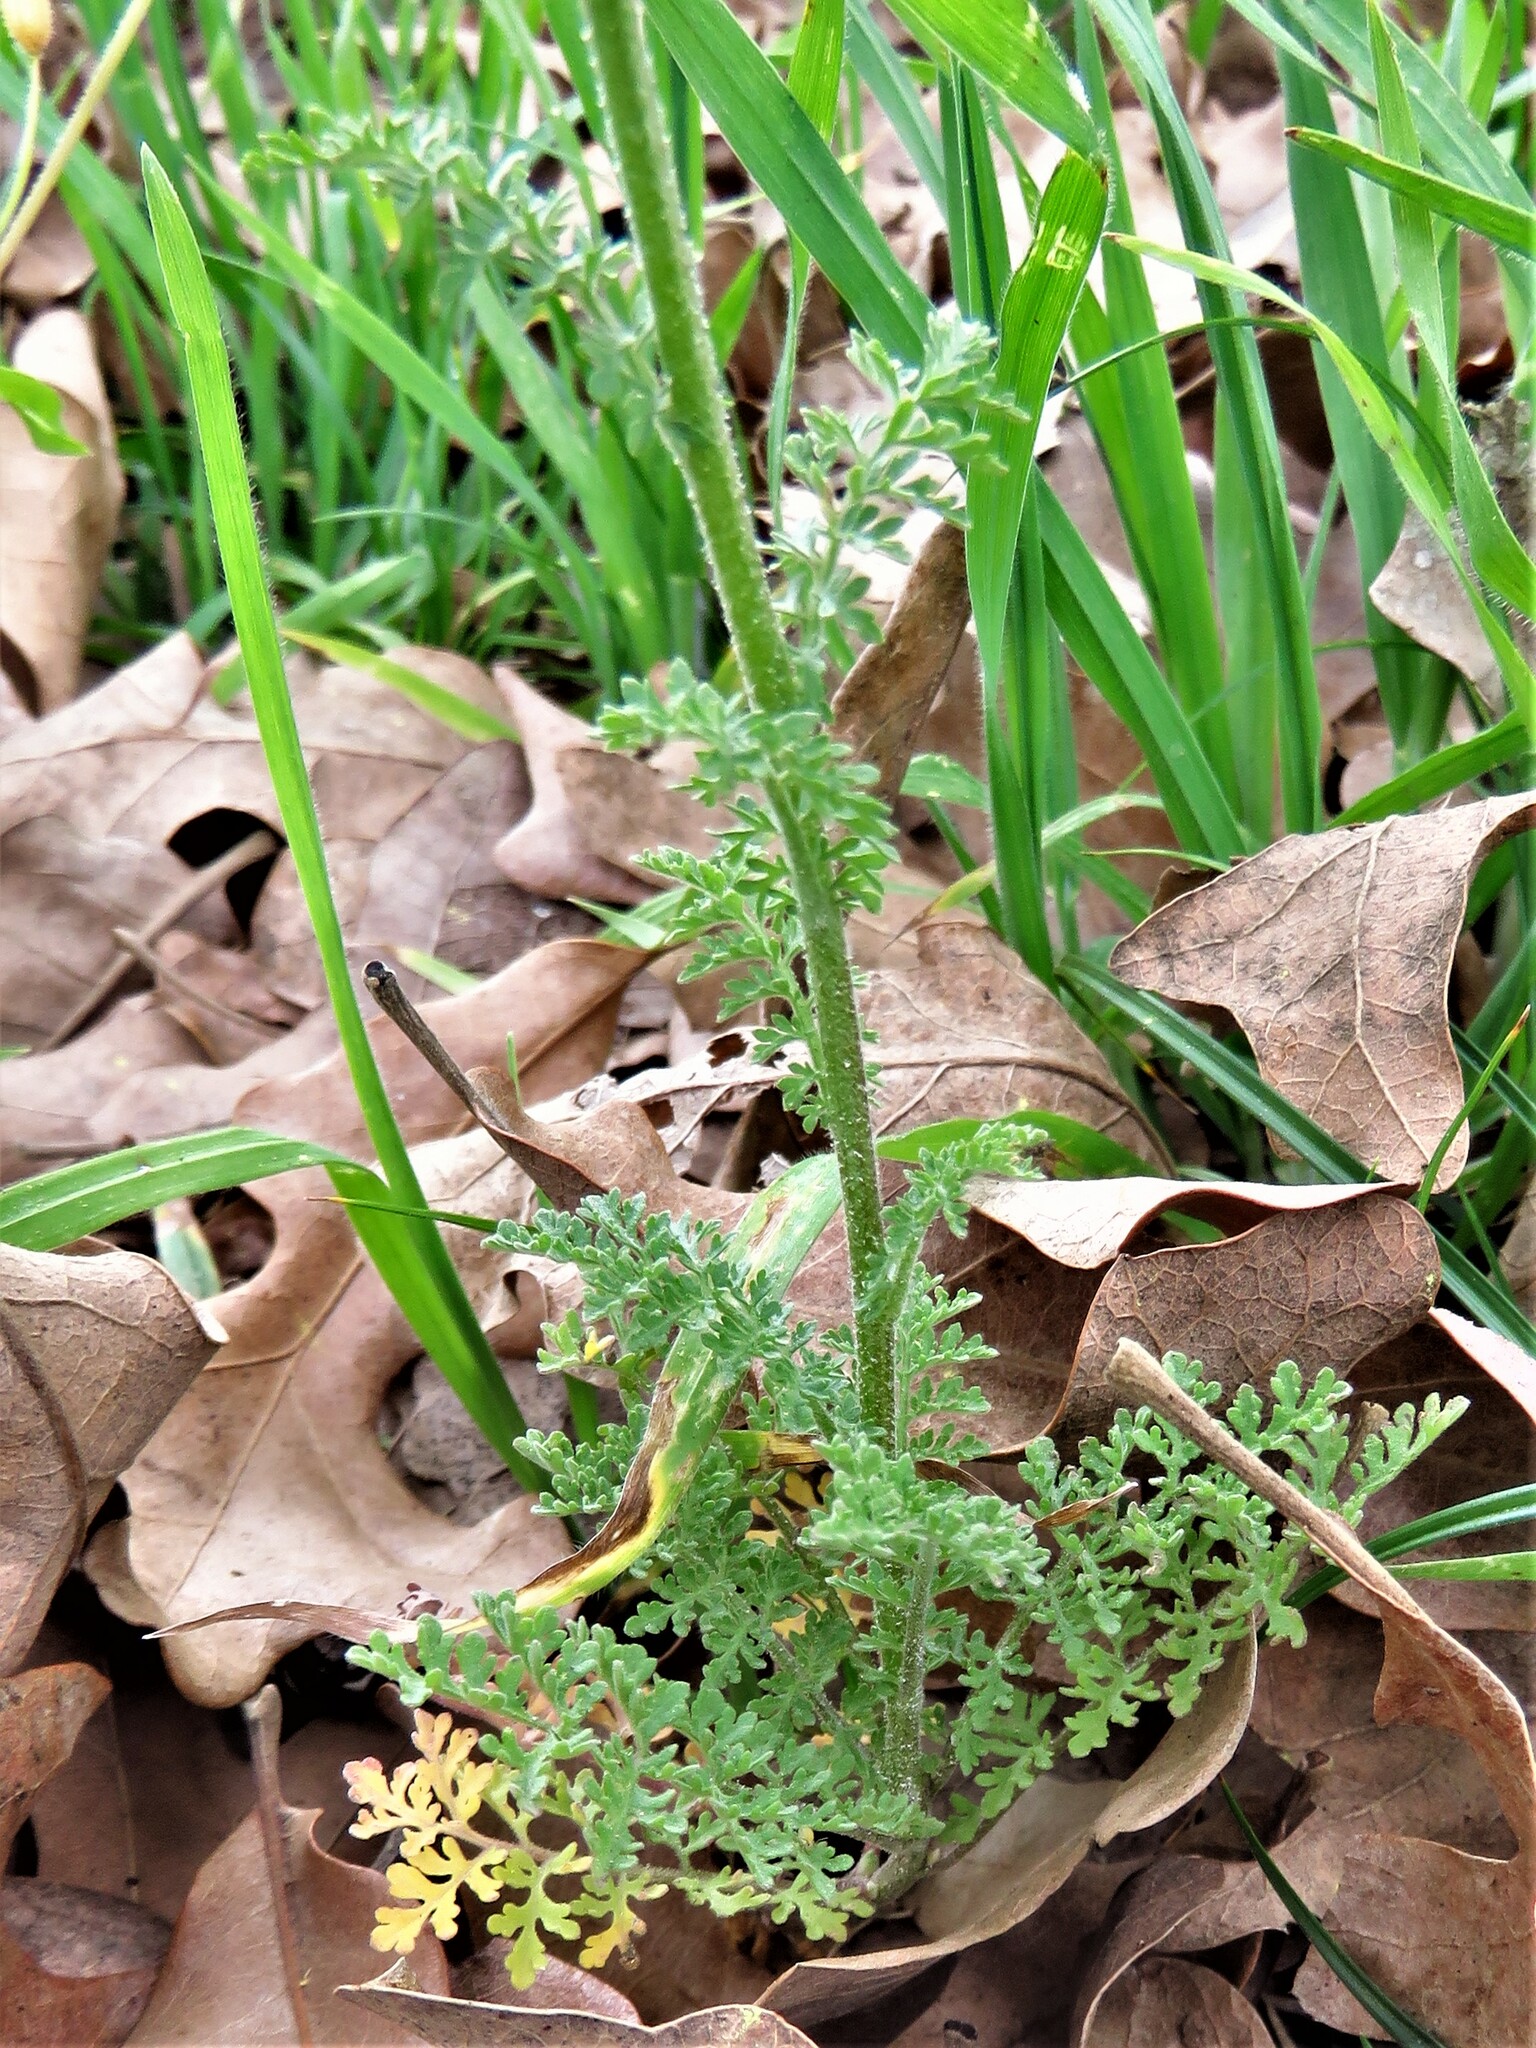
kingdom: Plantae
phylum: Tracheophyta
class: Magnoliopsida
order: Brassicales
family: Brassicaceae
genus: Descurainia
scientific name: Descurainia pinnata
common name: Western tansy mustard
